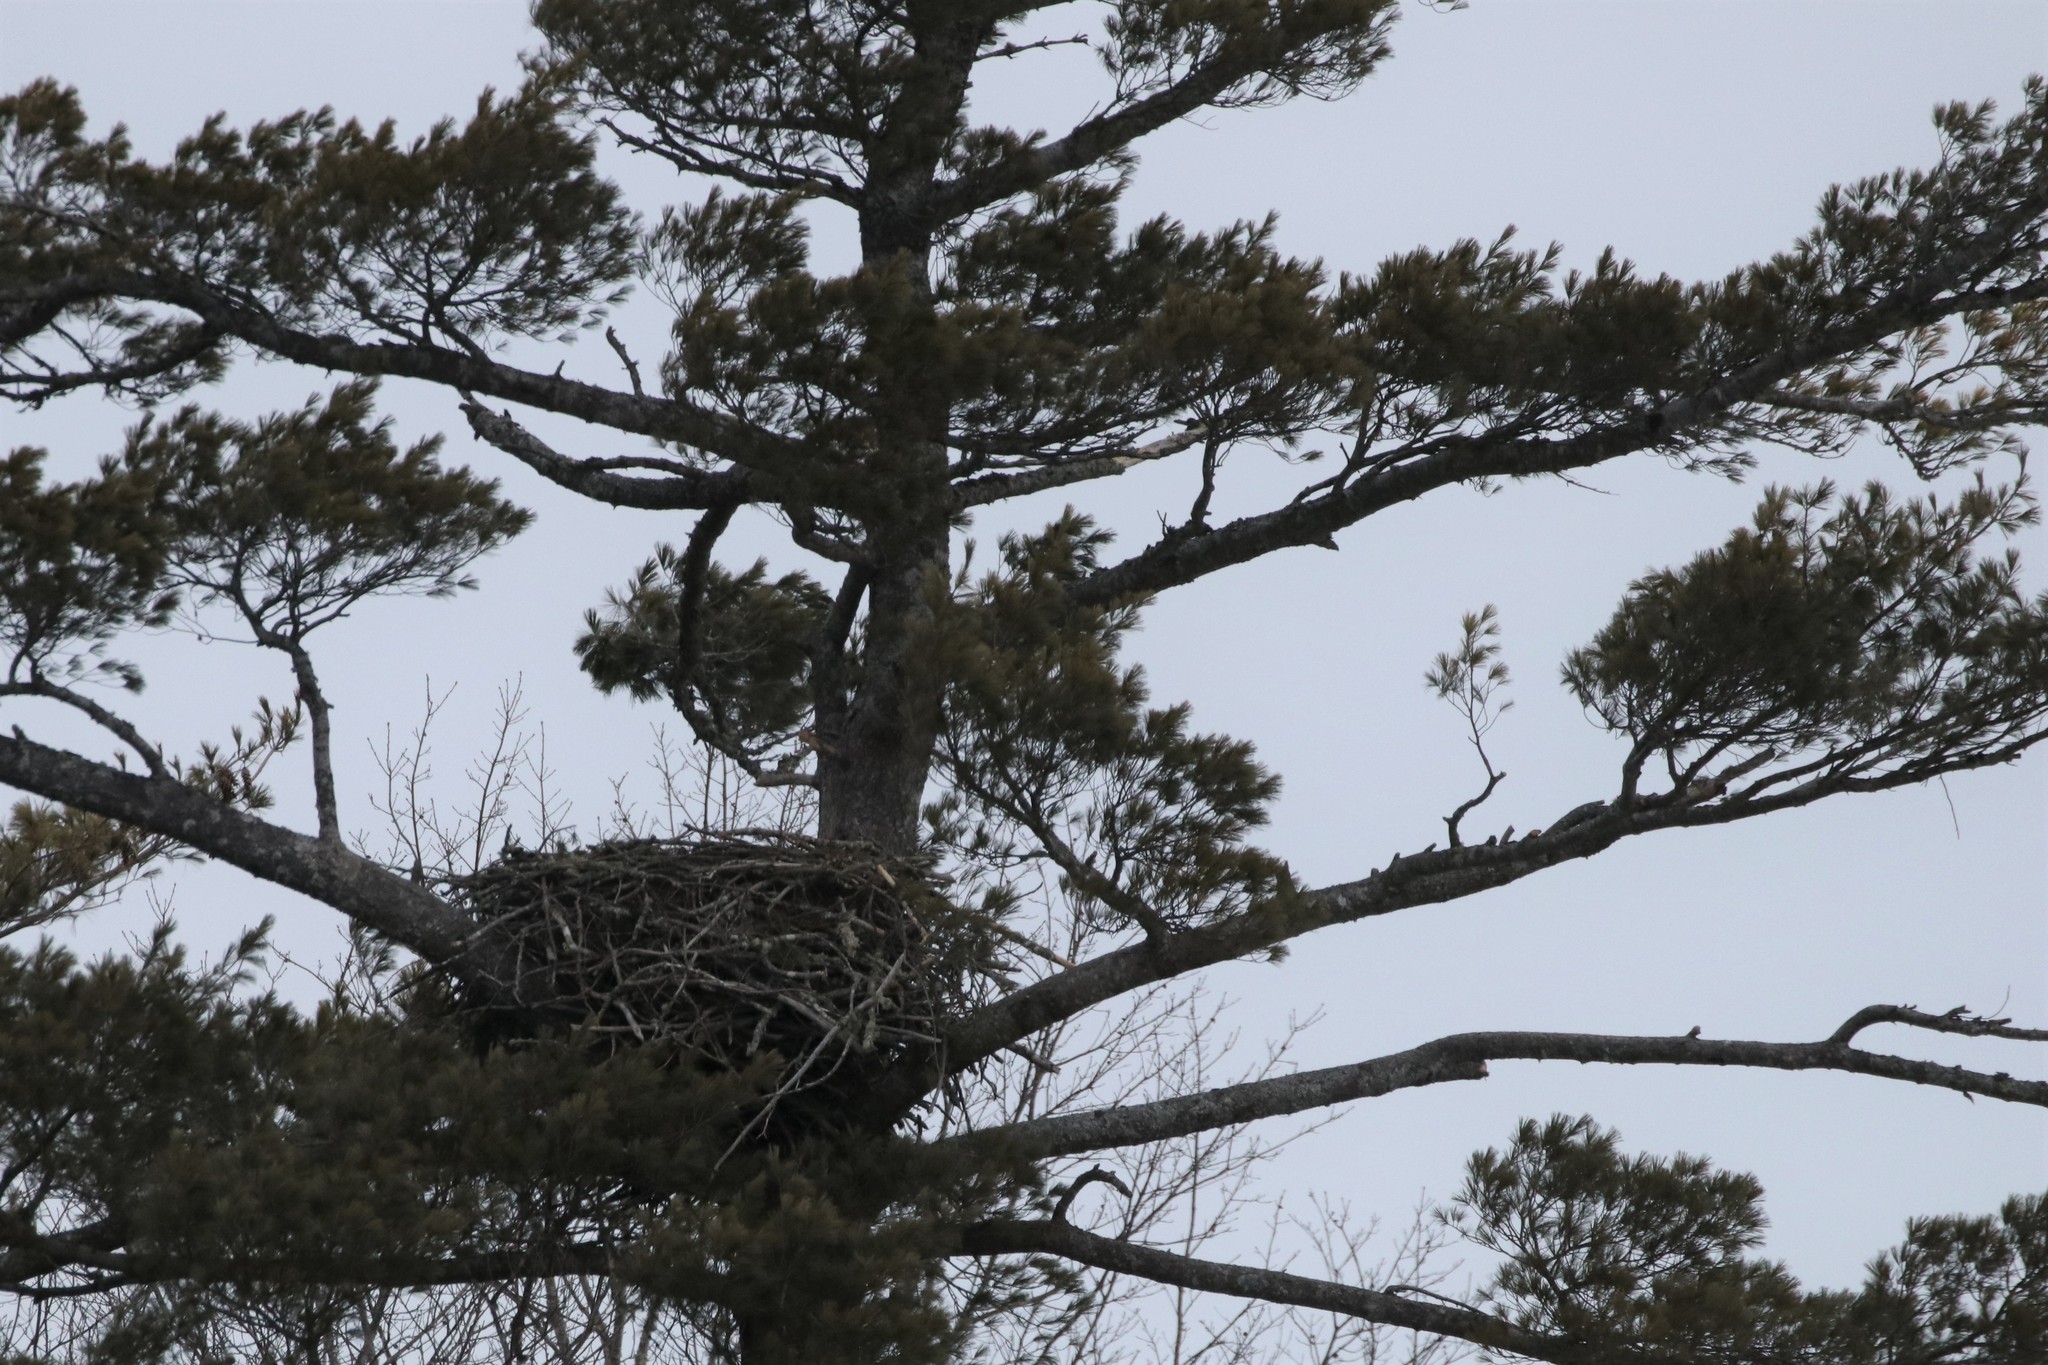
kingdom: Animalia
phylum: Chordata
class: Aves
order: Accipitriformes
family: Accipitridae
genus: Haliaeetus
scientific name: Haliaeetus leucocephalus
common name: Bald eagle
